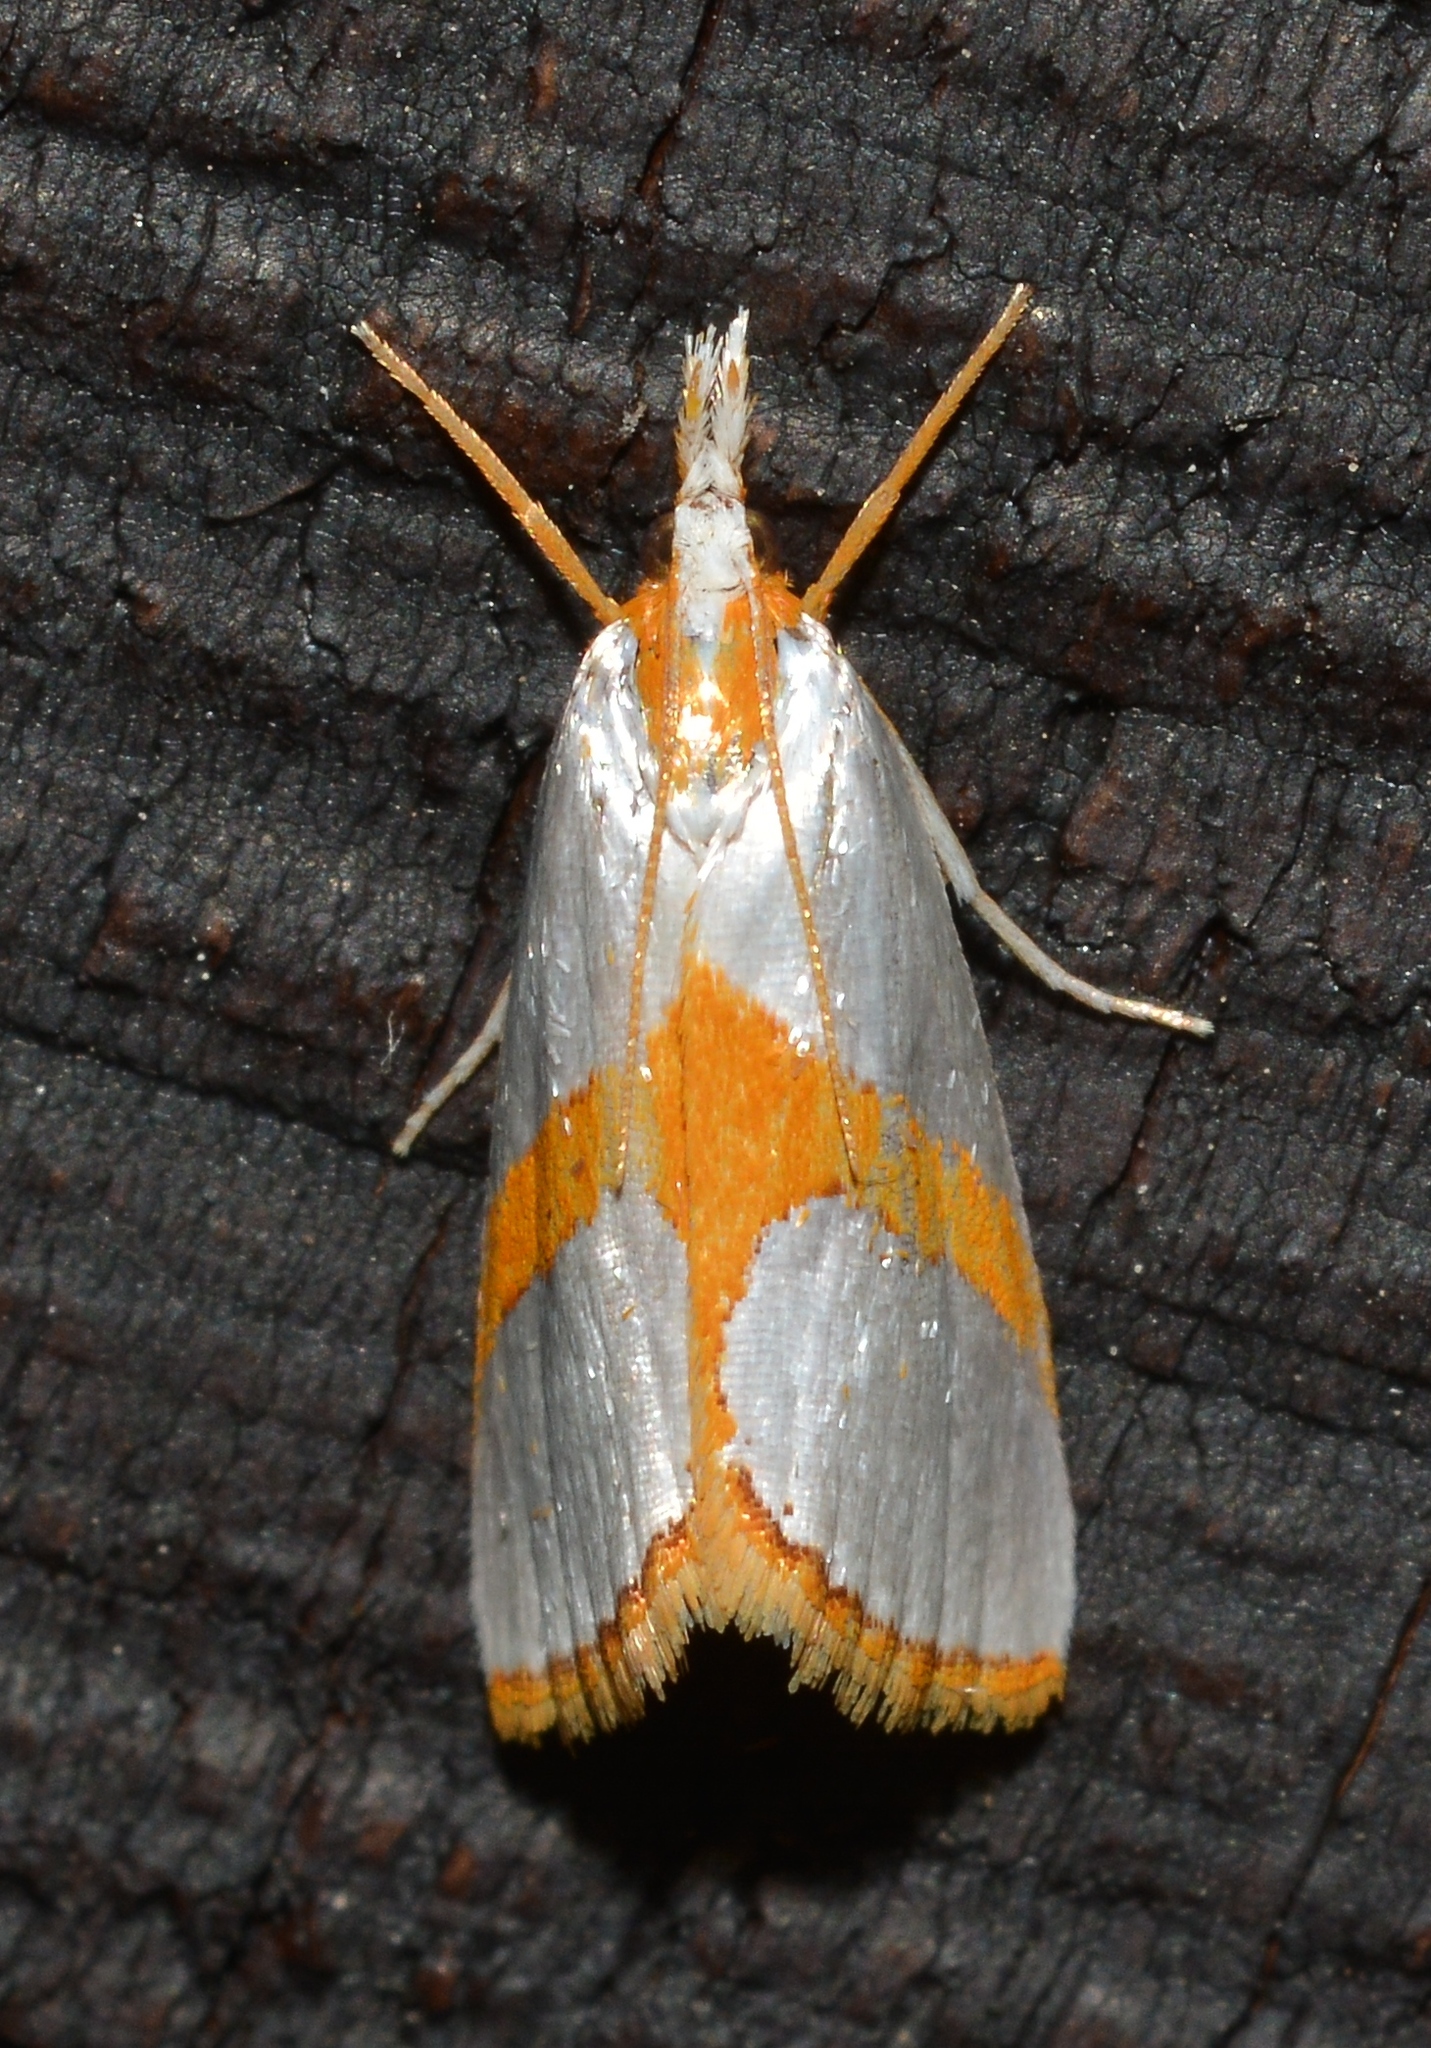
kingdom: Animalia
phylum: Arthropoda
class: Insecta
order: Lepidoptera
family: Crambidae
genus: Argyria
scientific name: Argyria auratella
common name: Curve-lined argyria moth
